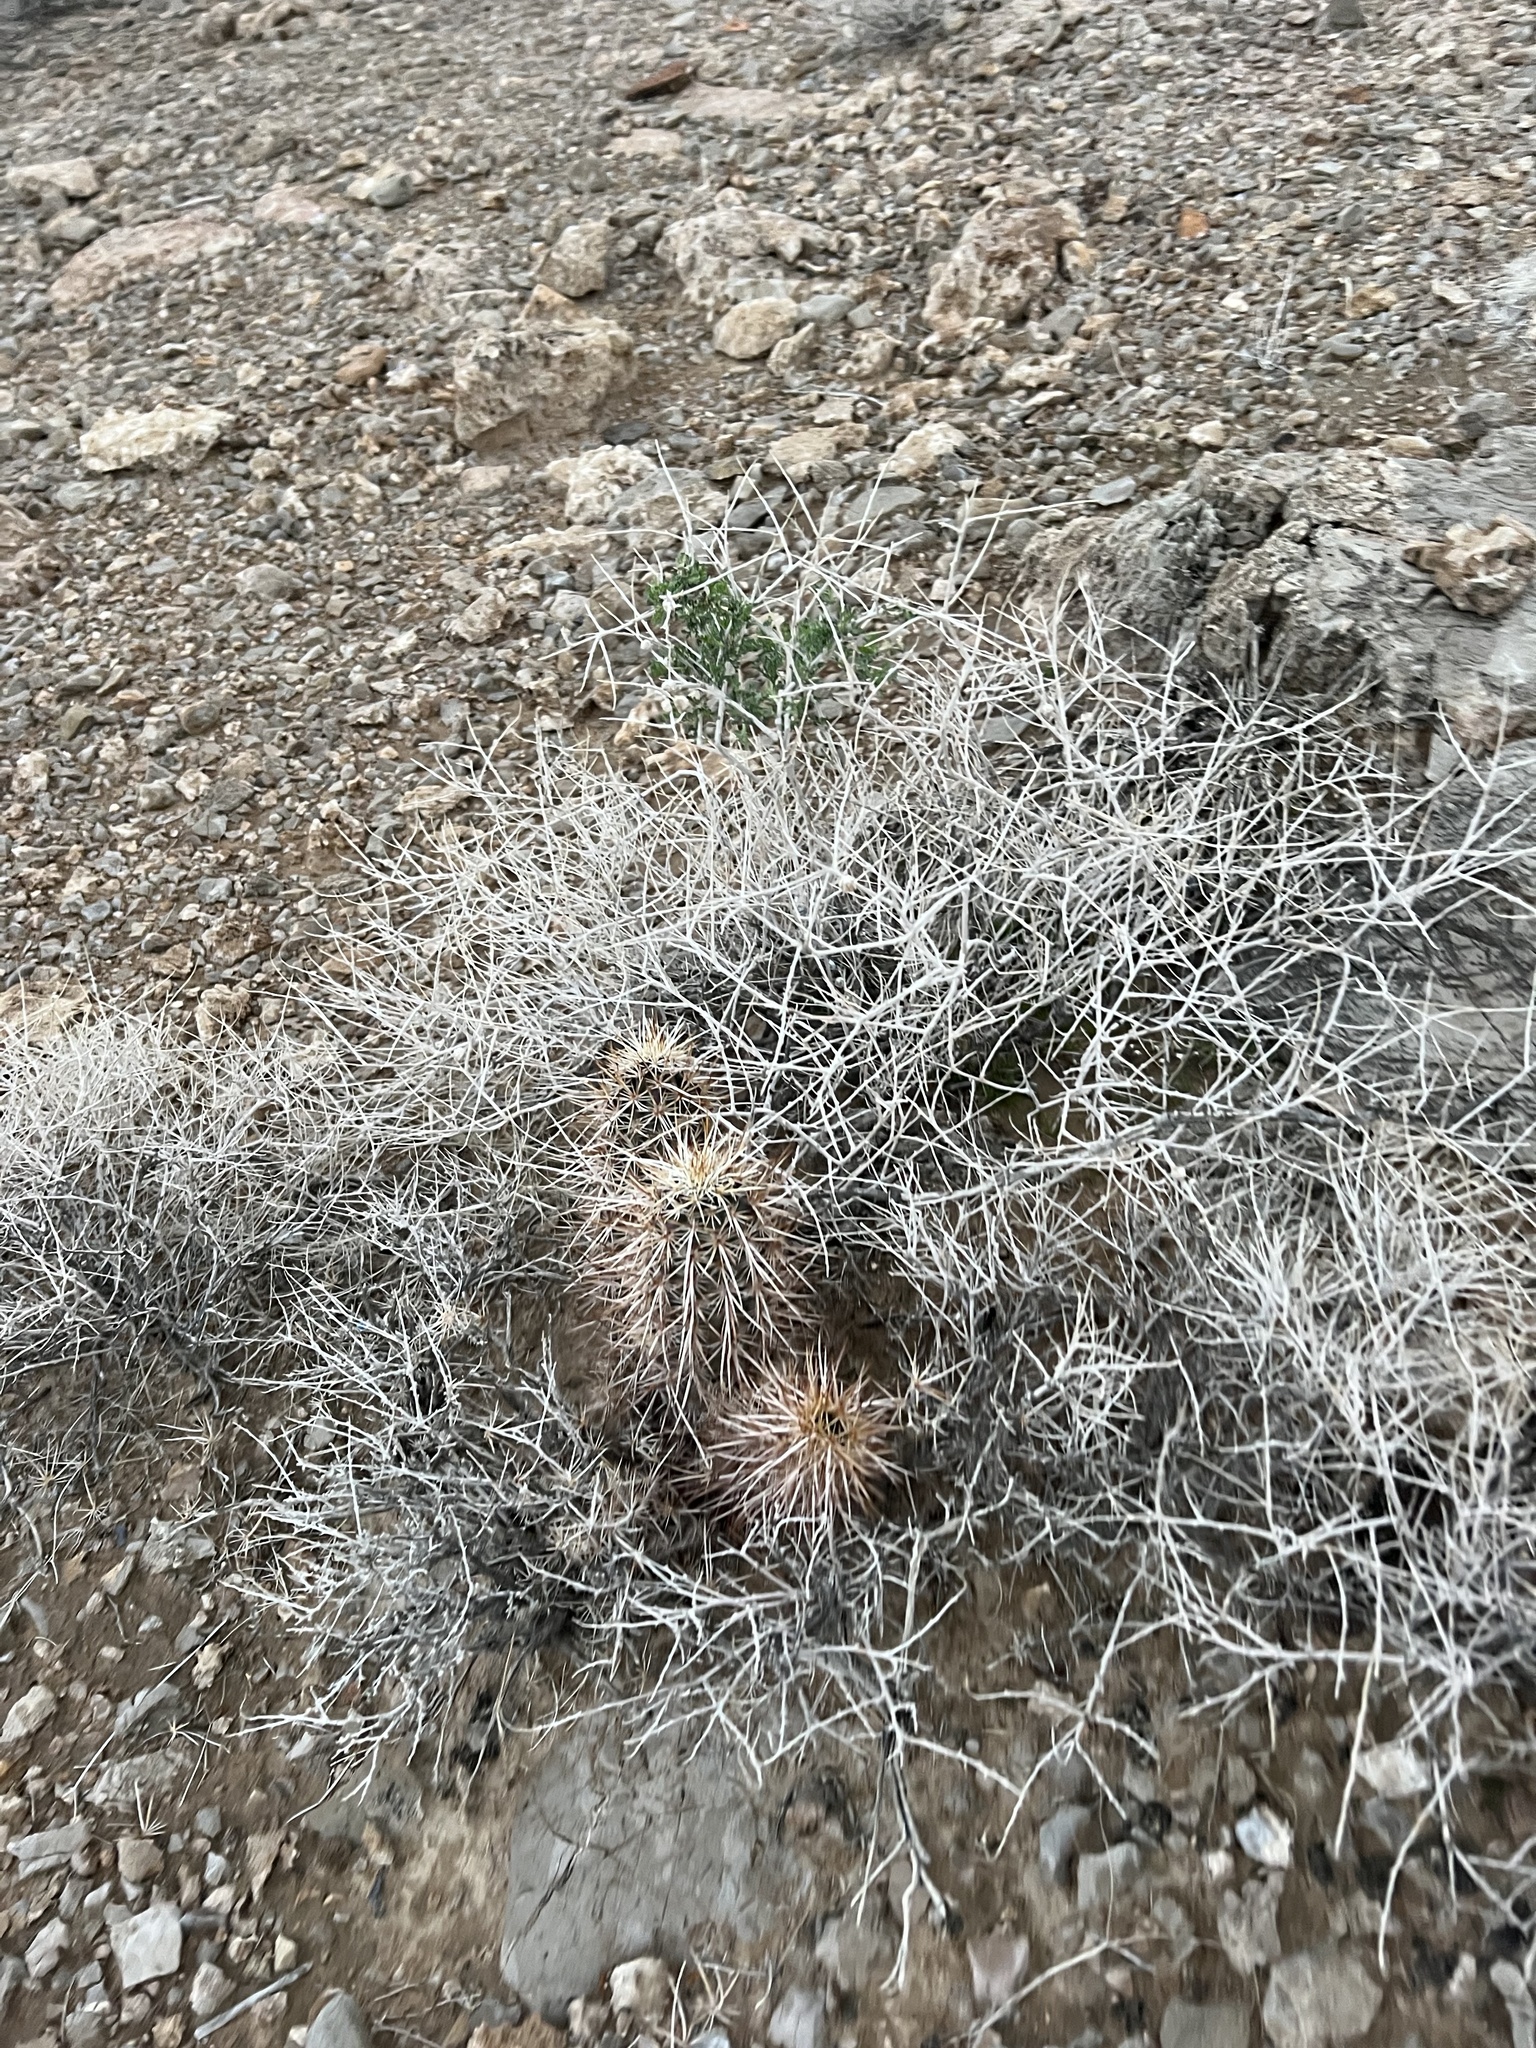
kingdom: Plantae
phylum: Tracheophyta
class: Magnoliopsida
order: Caryophyllales
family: Cactaceae
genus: Echinocereus
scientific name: Echinocereus engelmannii
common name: Engelmann's hedgehog cactus
